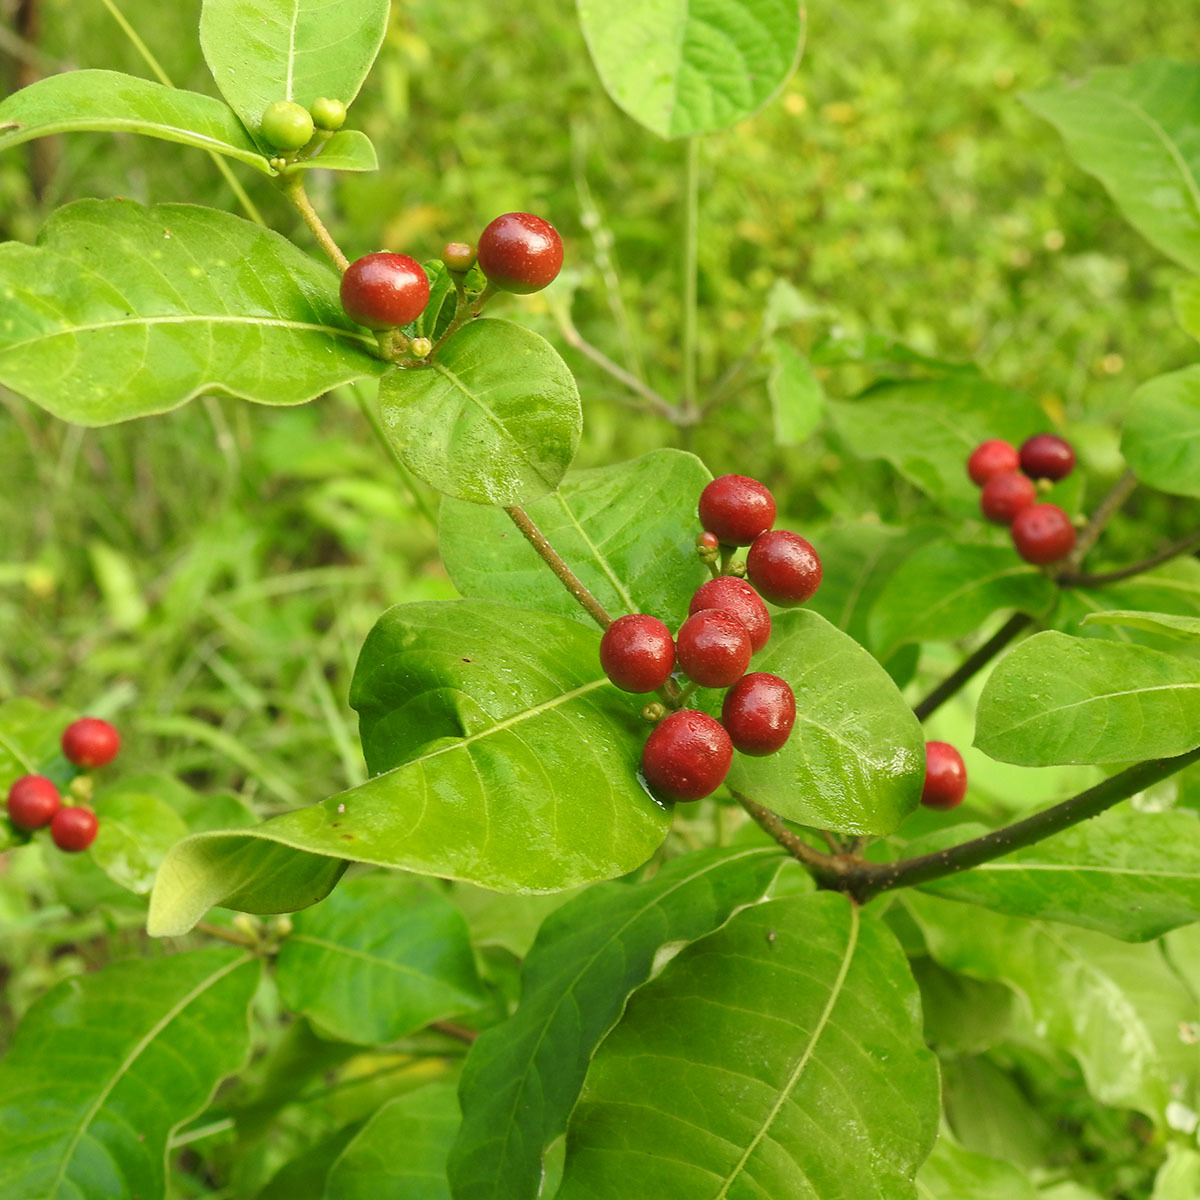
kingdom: Plantae
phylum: Tracheophyta
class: Magnoliopsida
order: Gentianales
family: Apocynaceae
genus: Rauvolfia
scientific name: Rauvolfia tetraphylla
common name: Four-leaf devil-pepper
